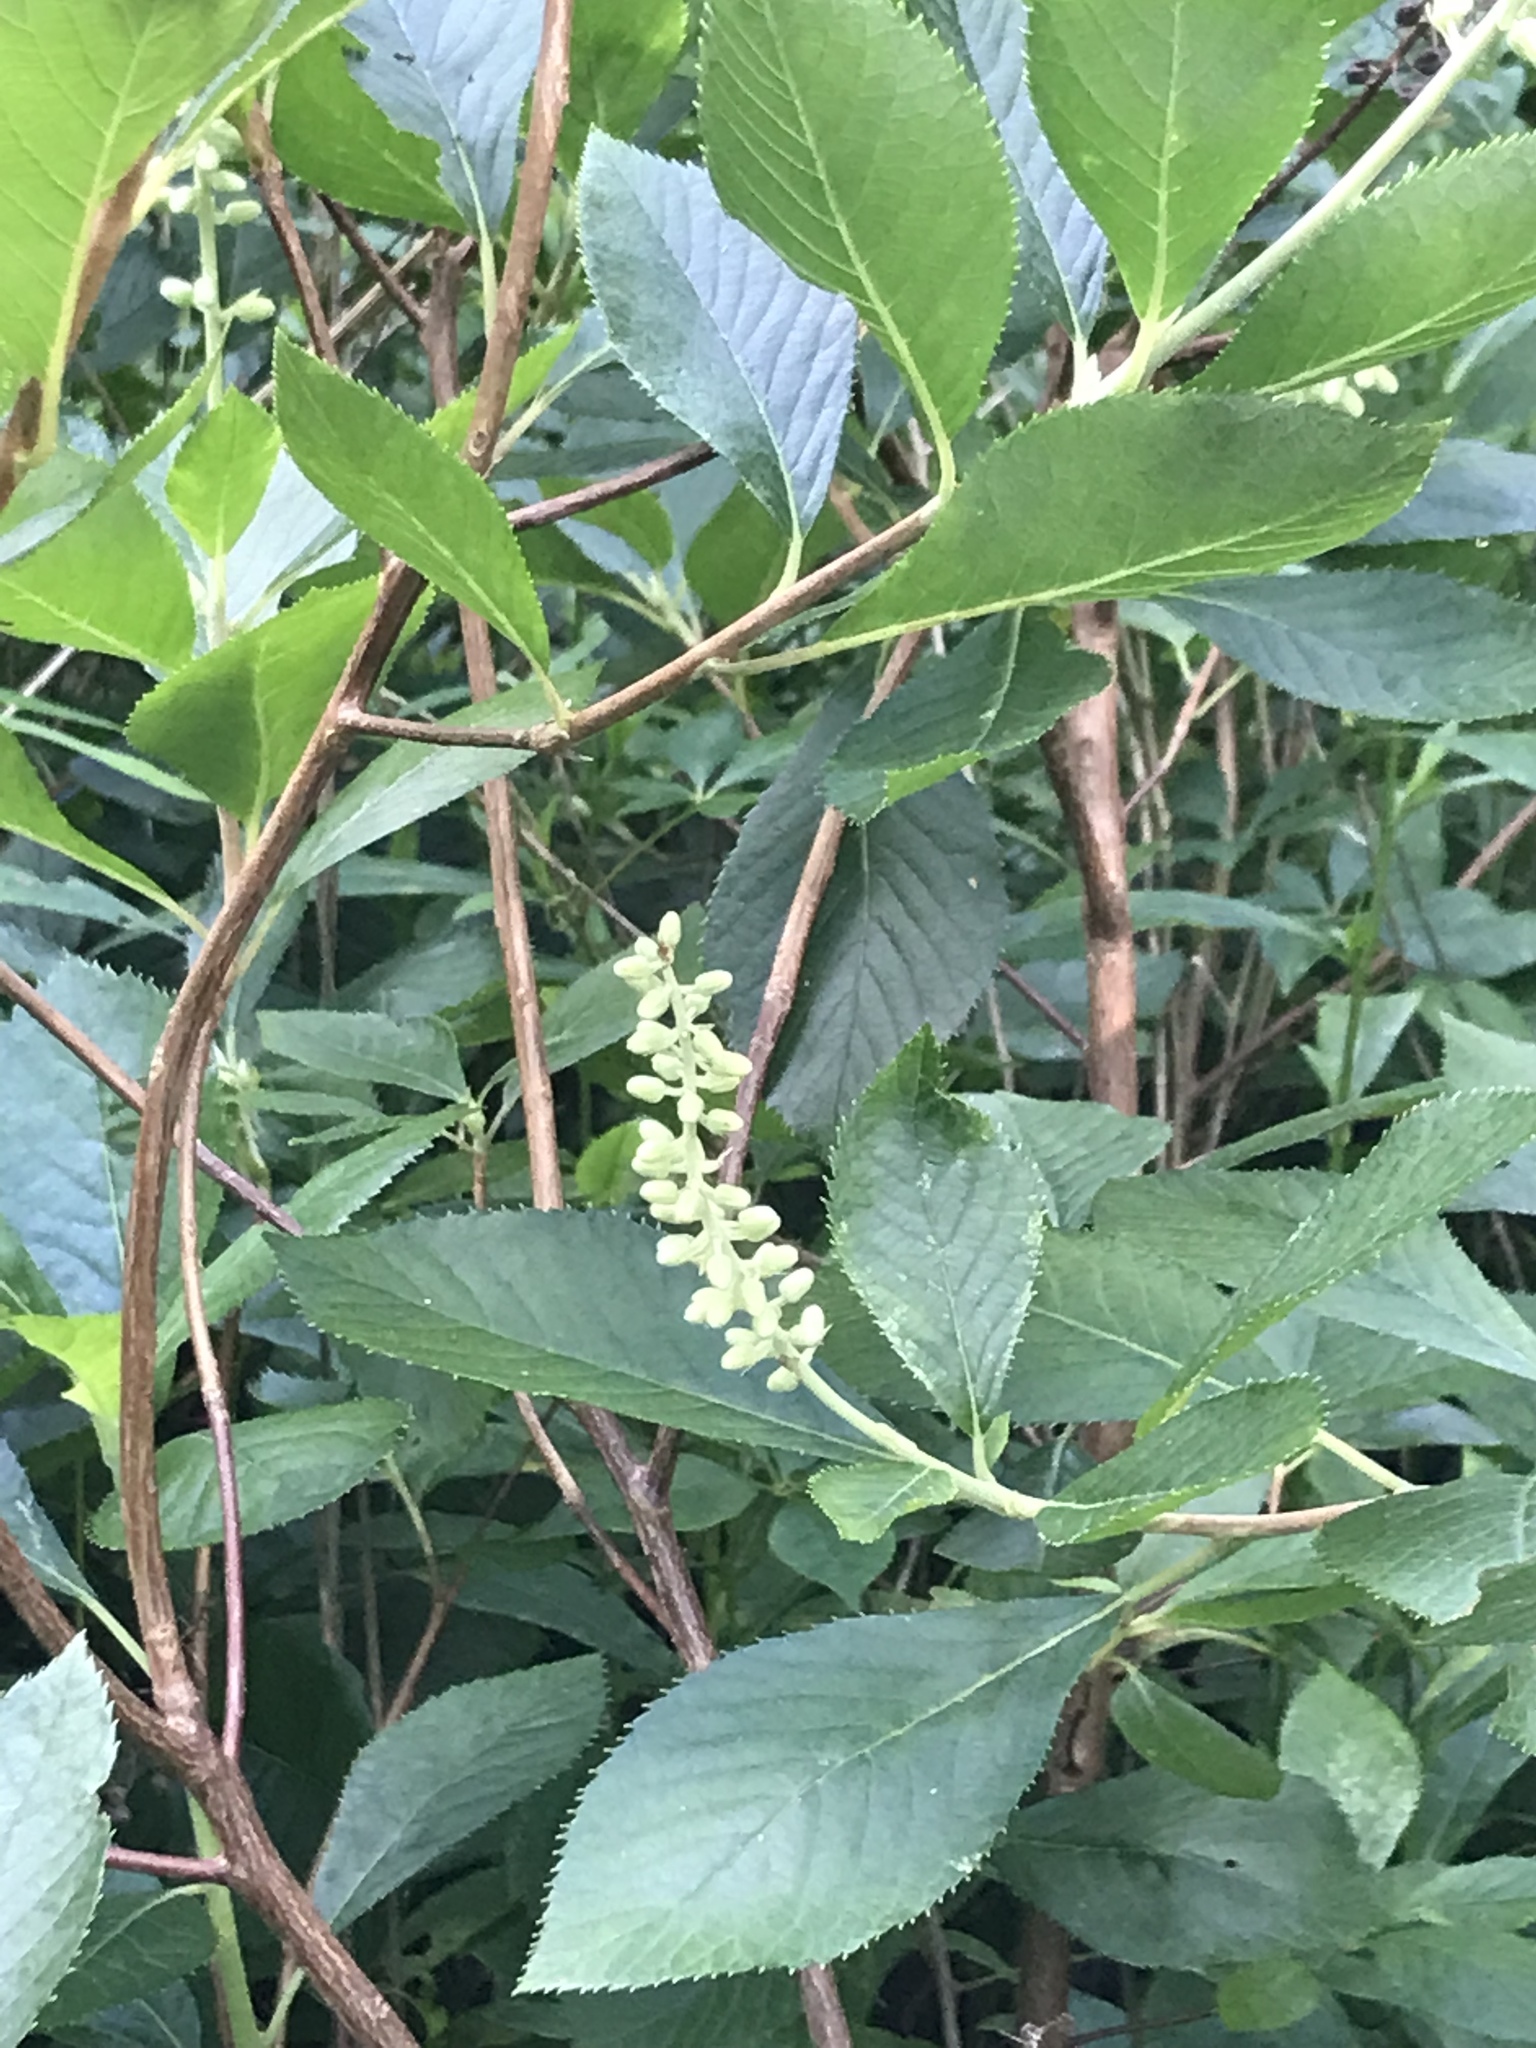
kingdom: Plantae
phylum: Tracheophyta
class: Magnoliopsida
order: Ericales
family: Clethraceae
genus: Clethra
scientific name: Clethra alnifolia
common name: Sweet pepperbush
